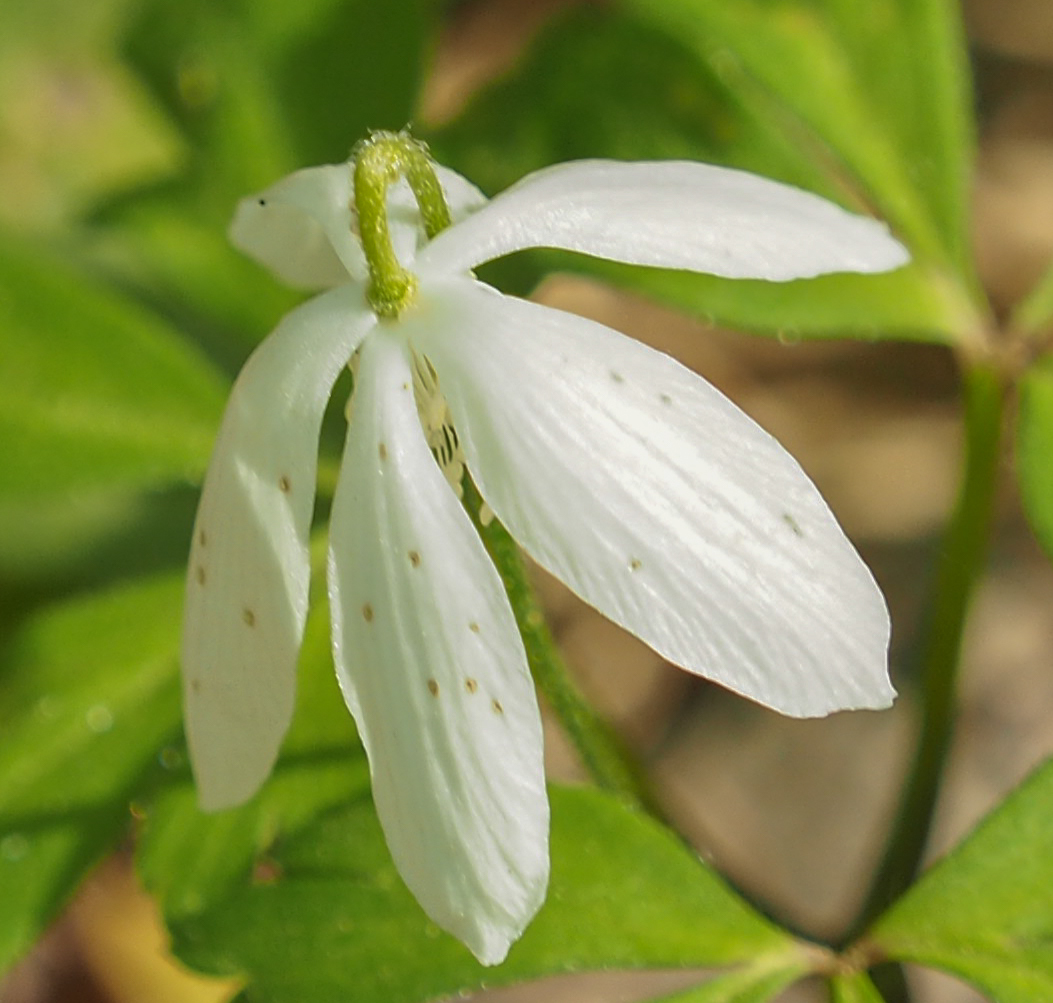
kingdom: Plantae
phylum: Tracheophyta
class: Magnoliopsida
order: Ranunculales
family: Ranunculaceae
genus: Anemone
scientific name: Anemone quinquefolia
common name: Wood anemone
